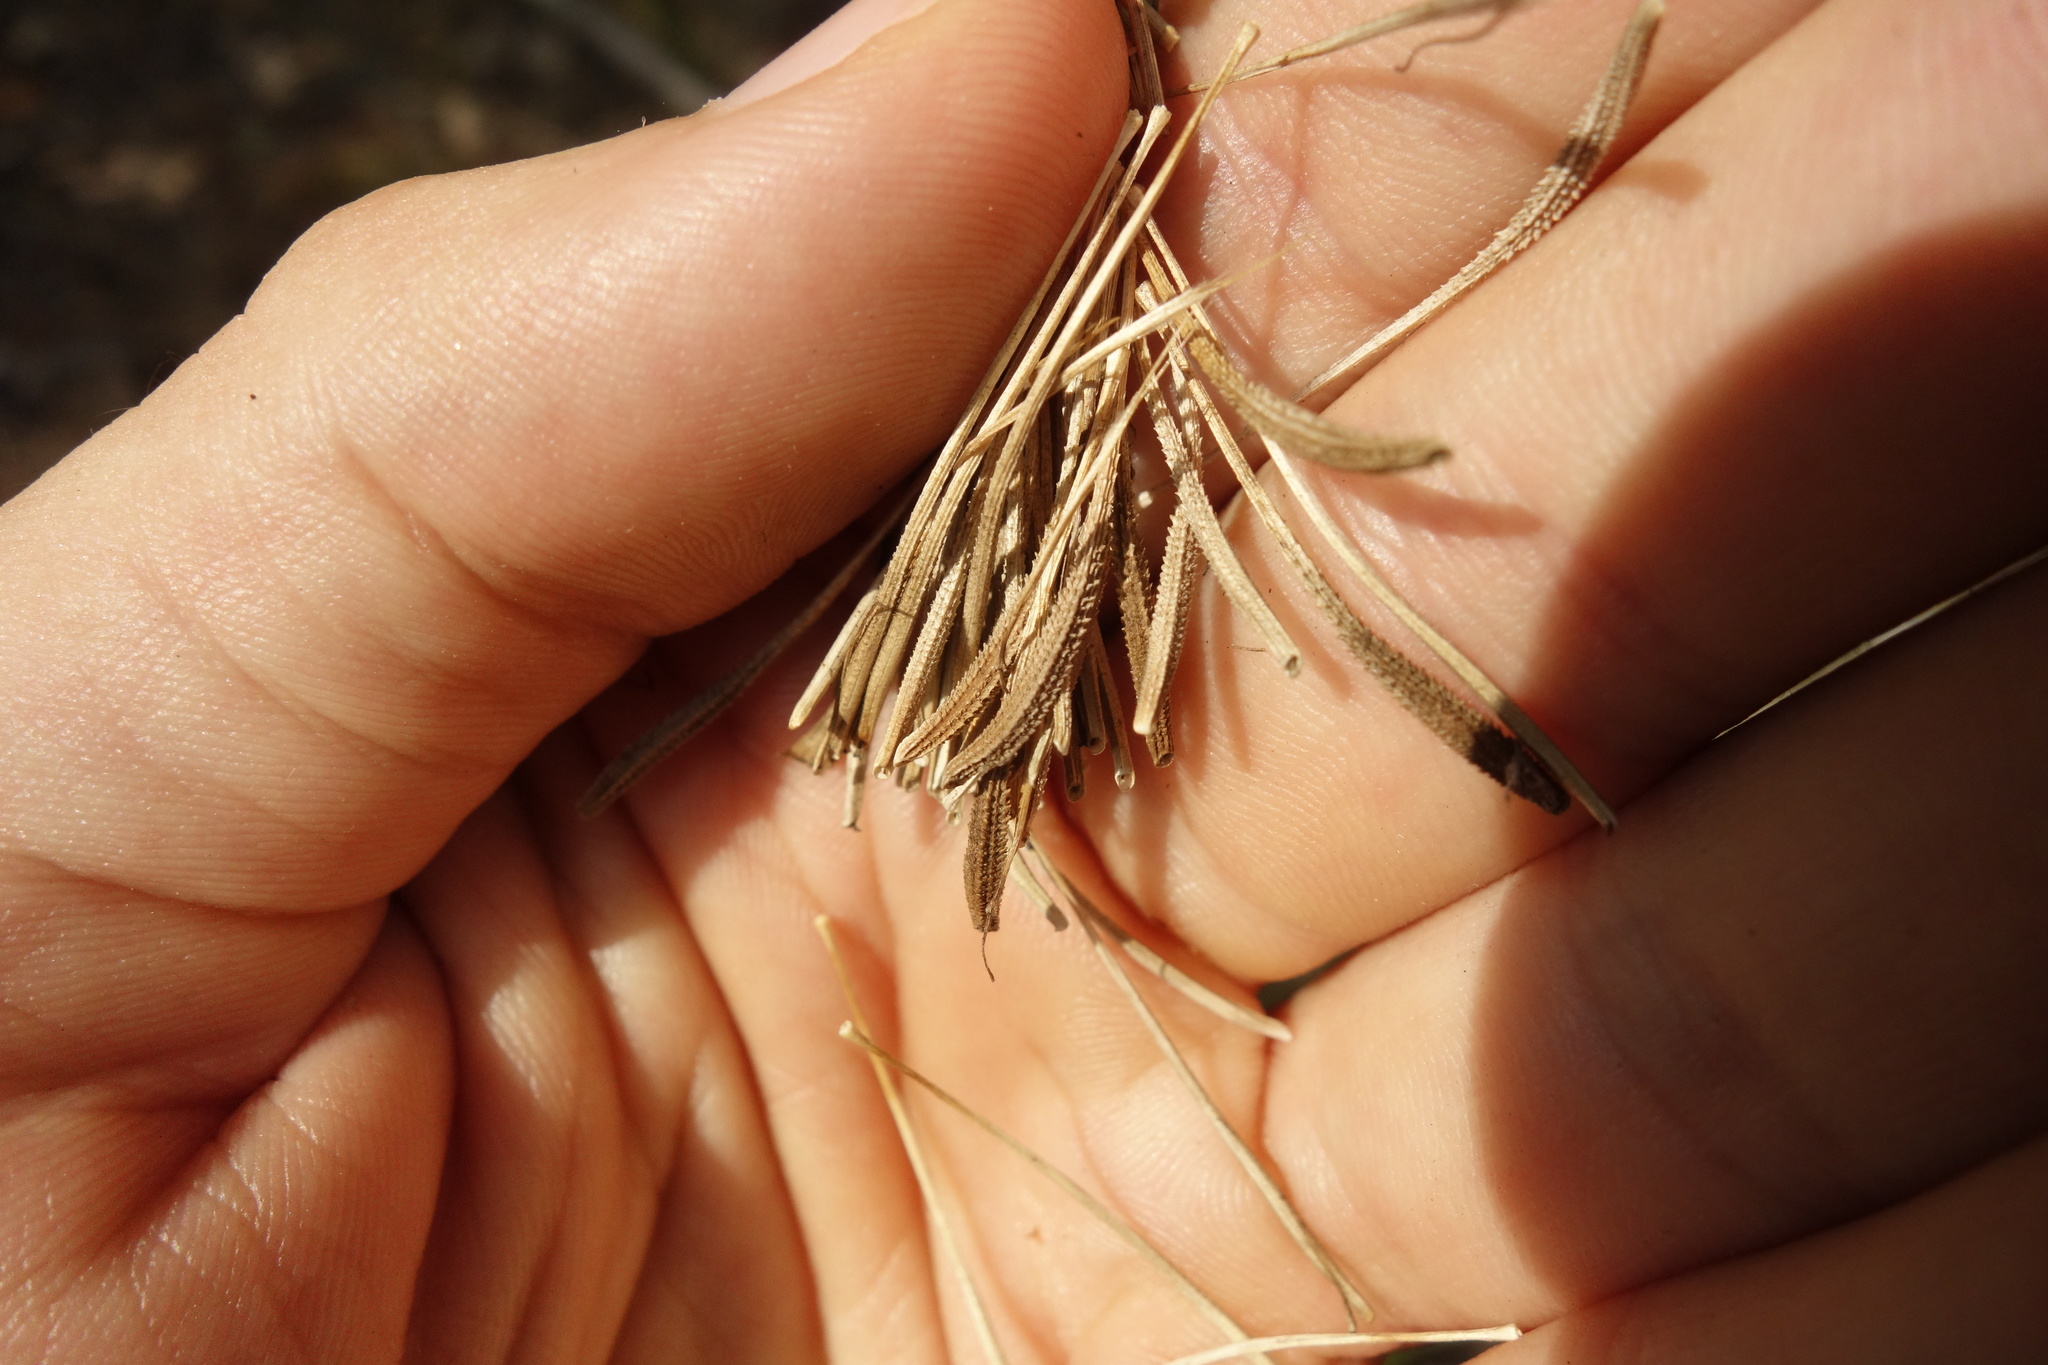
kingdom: Plantae
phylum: Tracheophyta
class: Magnoliopsida
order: Asterales
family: Asteraceae
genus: Tragopogon
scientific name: Tragopogon dubius
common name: Yellow salsify
